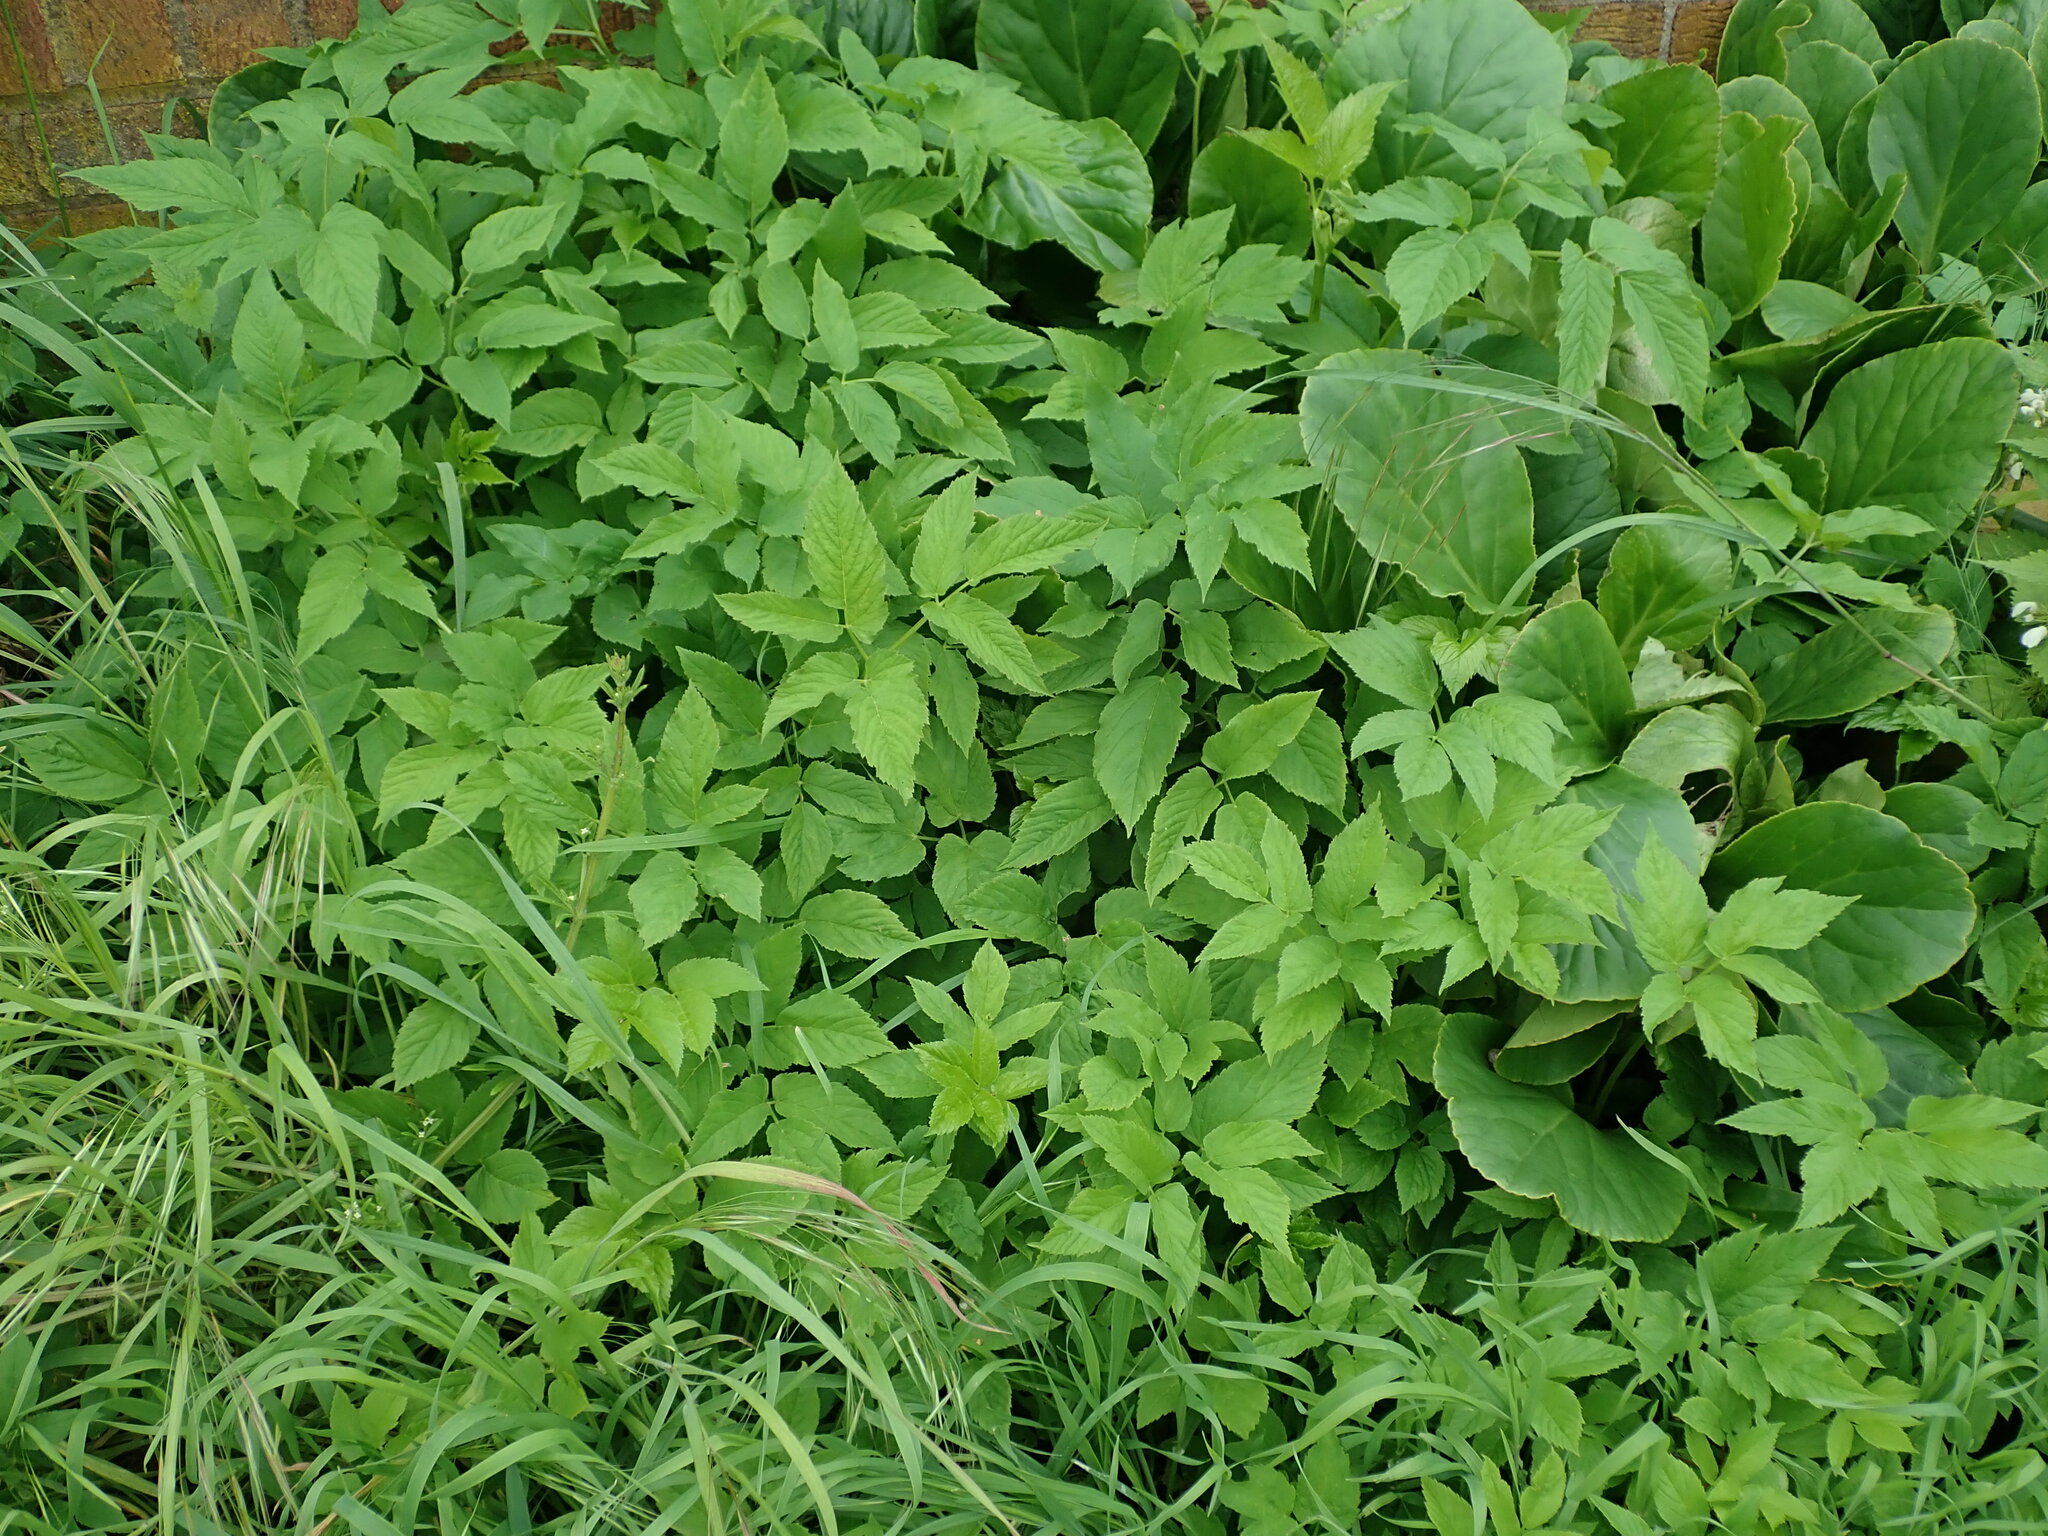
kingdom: Plantae
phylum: Tracheophyta
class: Magnoliopsida
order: Apiales
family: Apiaceae
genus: Aegopodium
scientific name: Aegopodium podagraria
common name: Ground-elder
